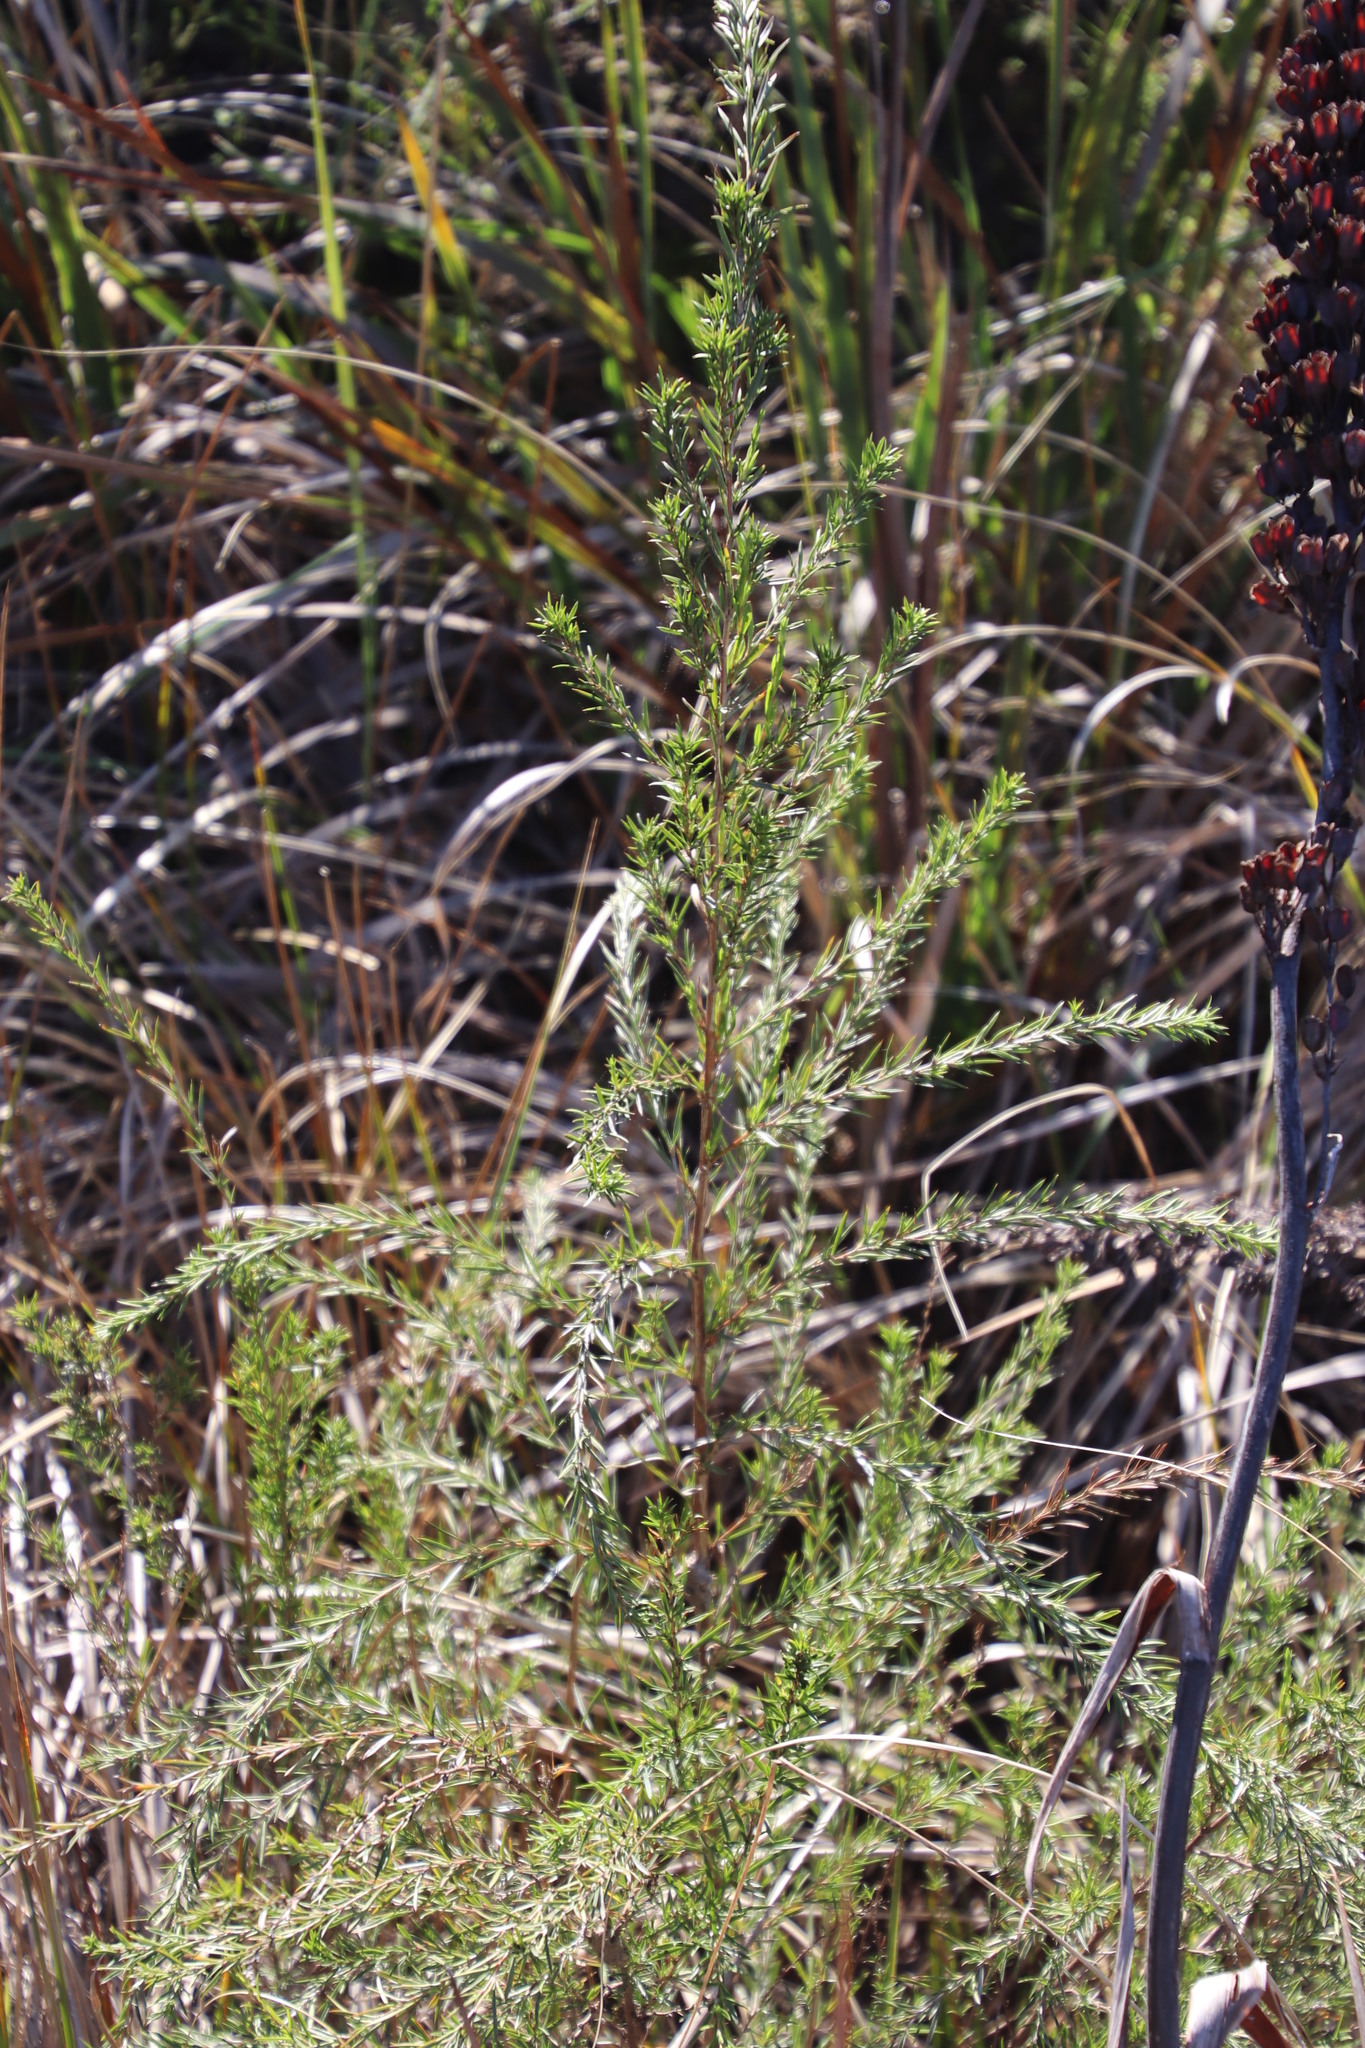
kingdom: Plantae
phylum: Tracheophyta
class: Magnoliopsida
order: Rosales
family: Rosaceae
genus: Cliffortia
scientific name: Cliffortia strobilifera
